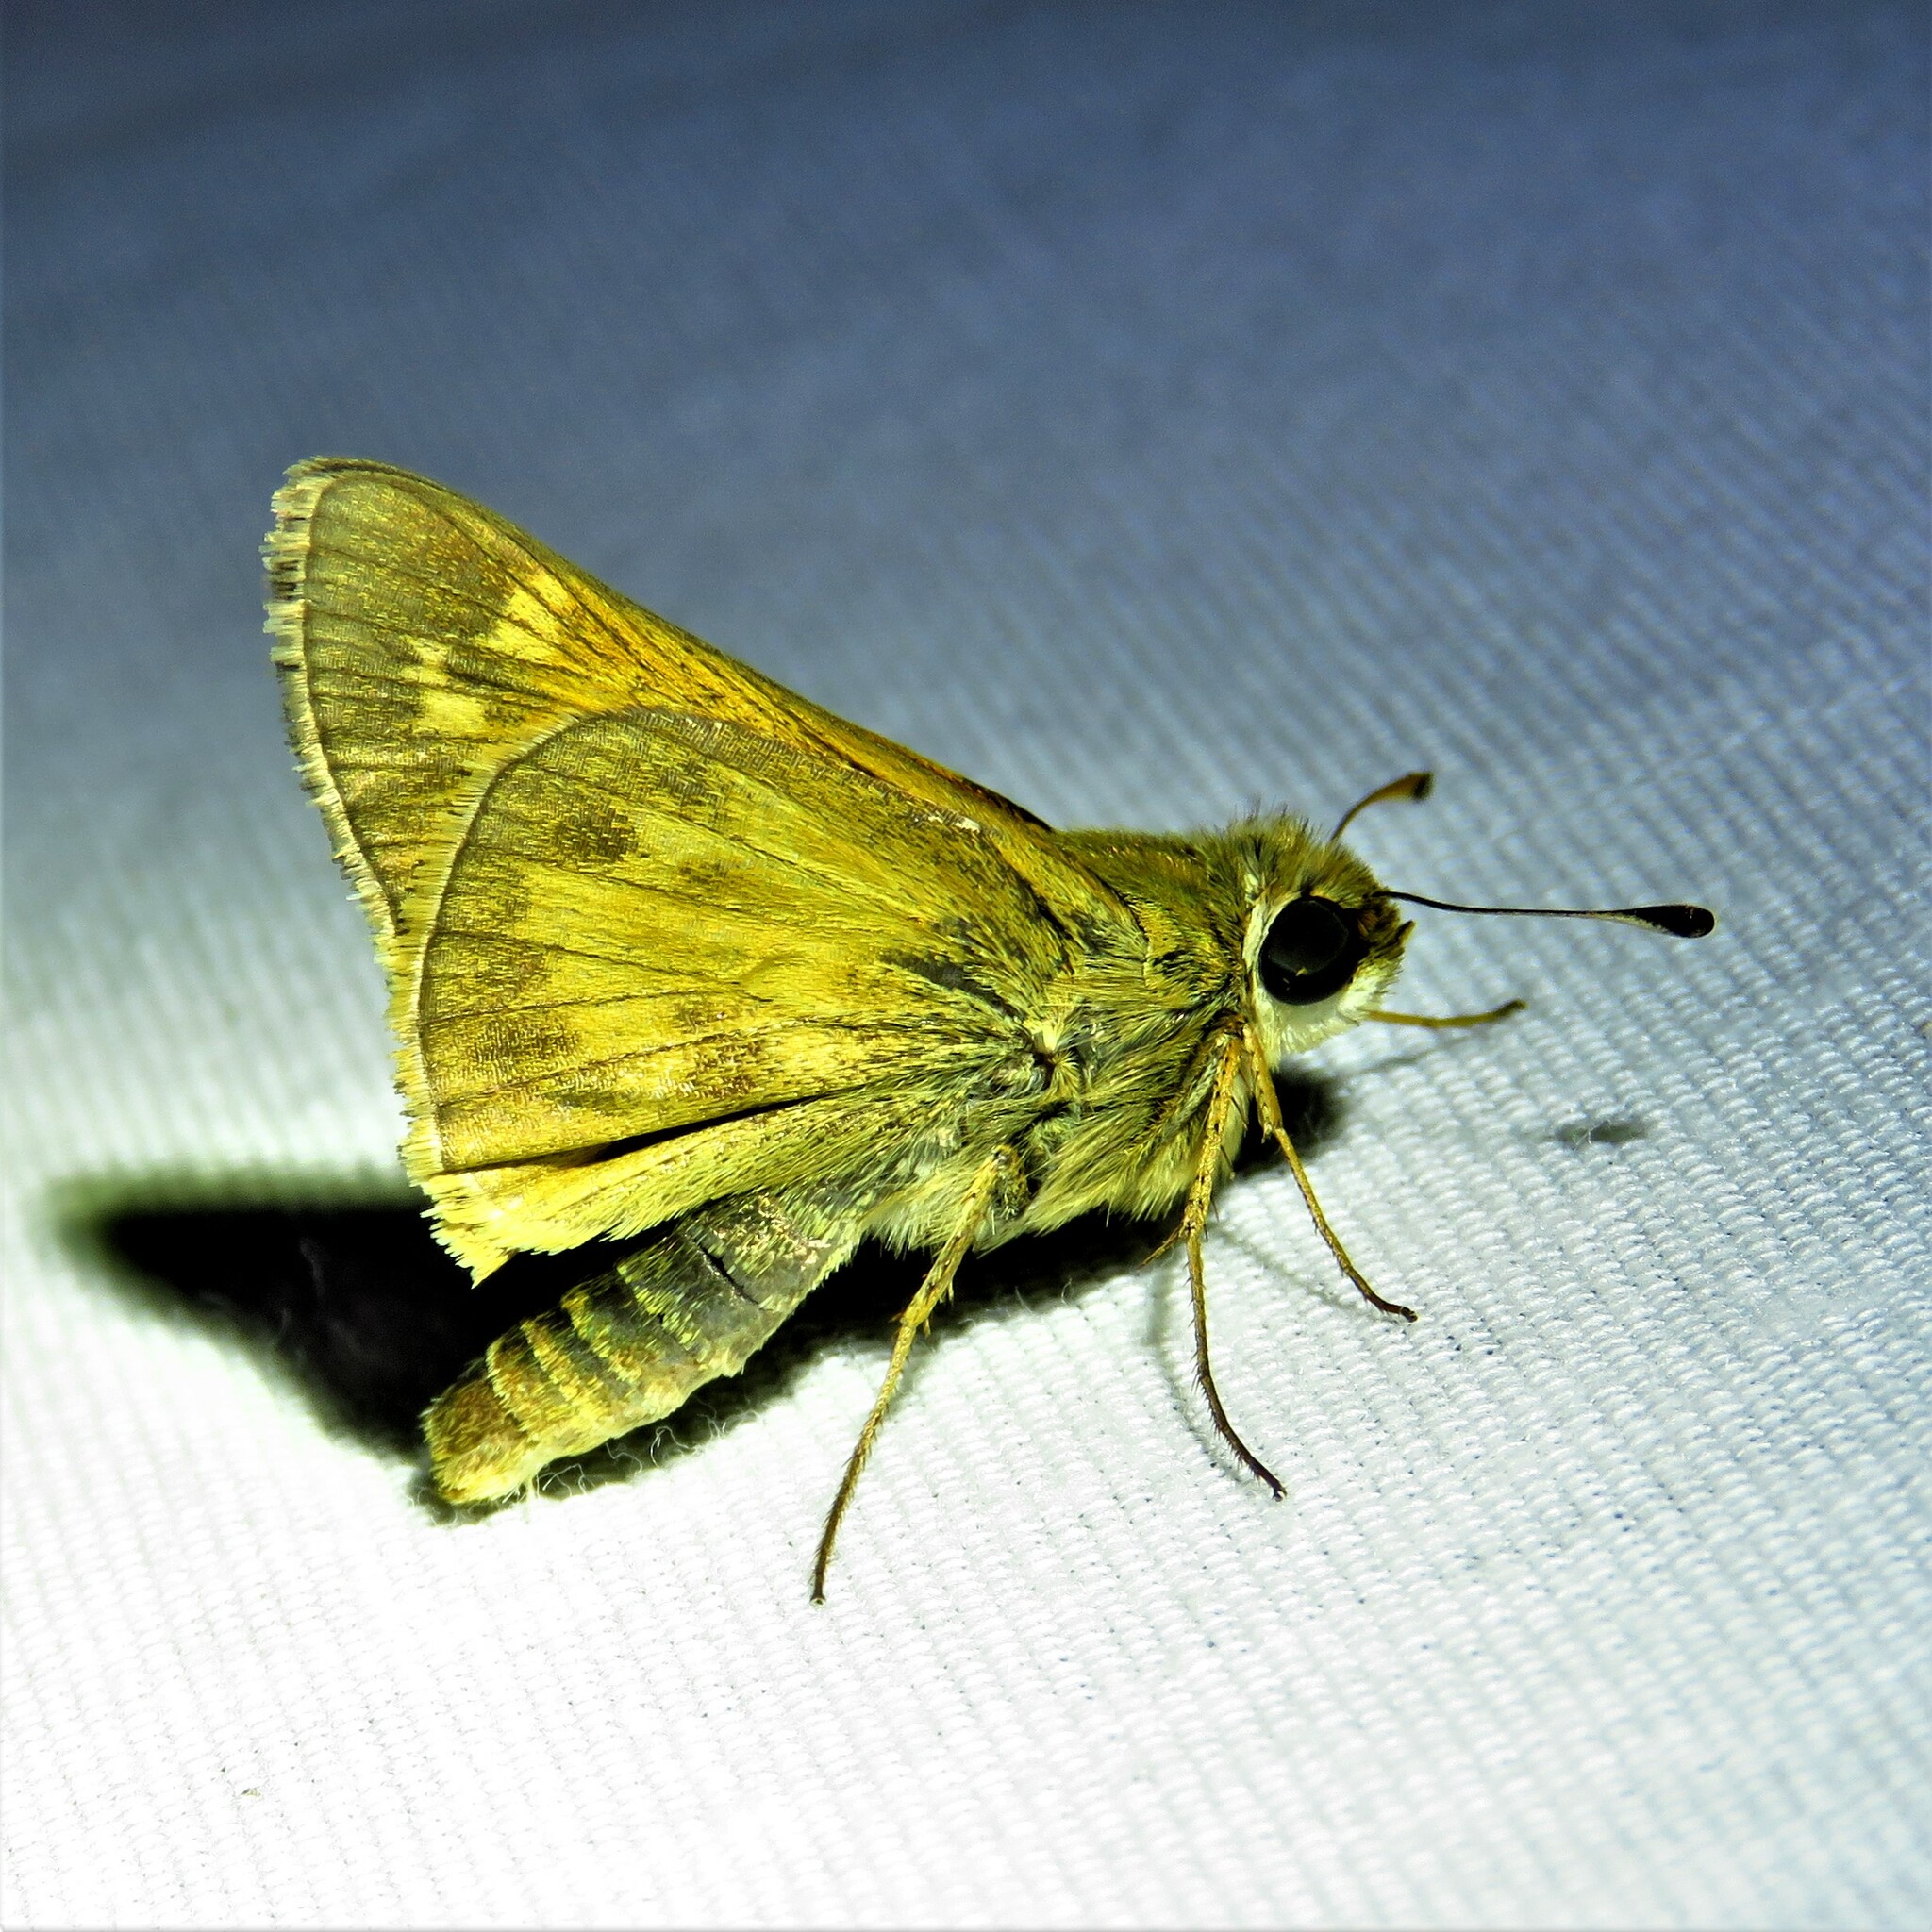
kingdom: Animalia
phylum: Arthropoda
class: Insecta
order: Lepidoptera
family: Hesperiidae
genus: Atalopedes
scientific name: Atalopedes
